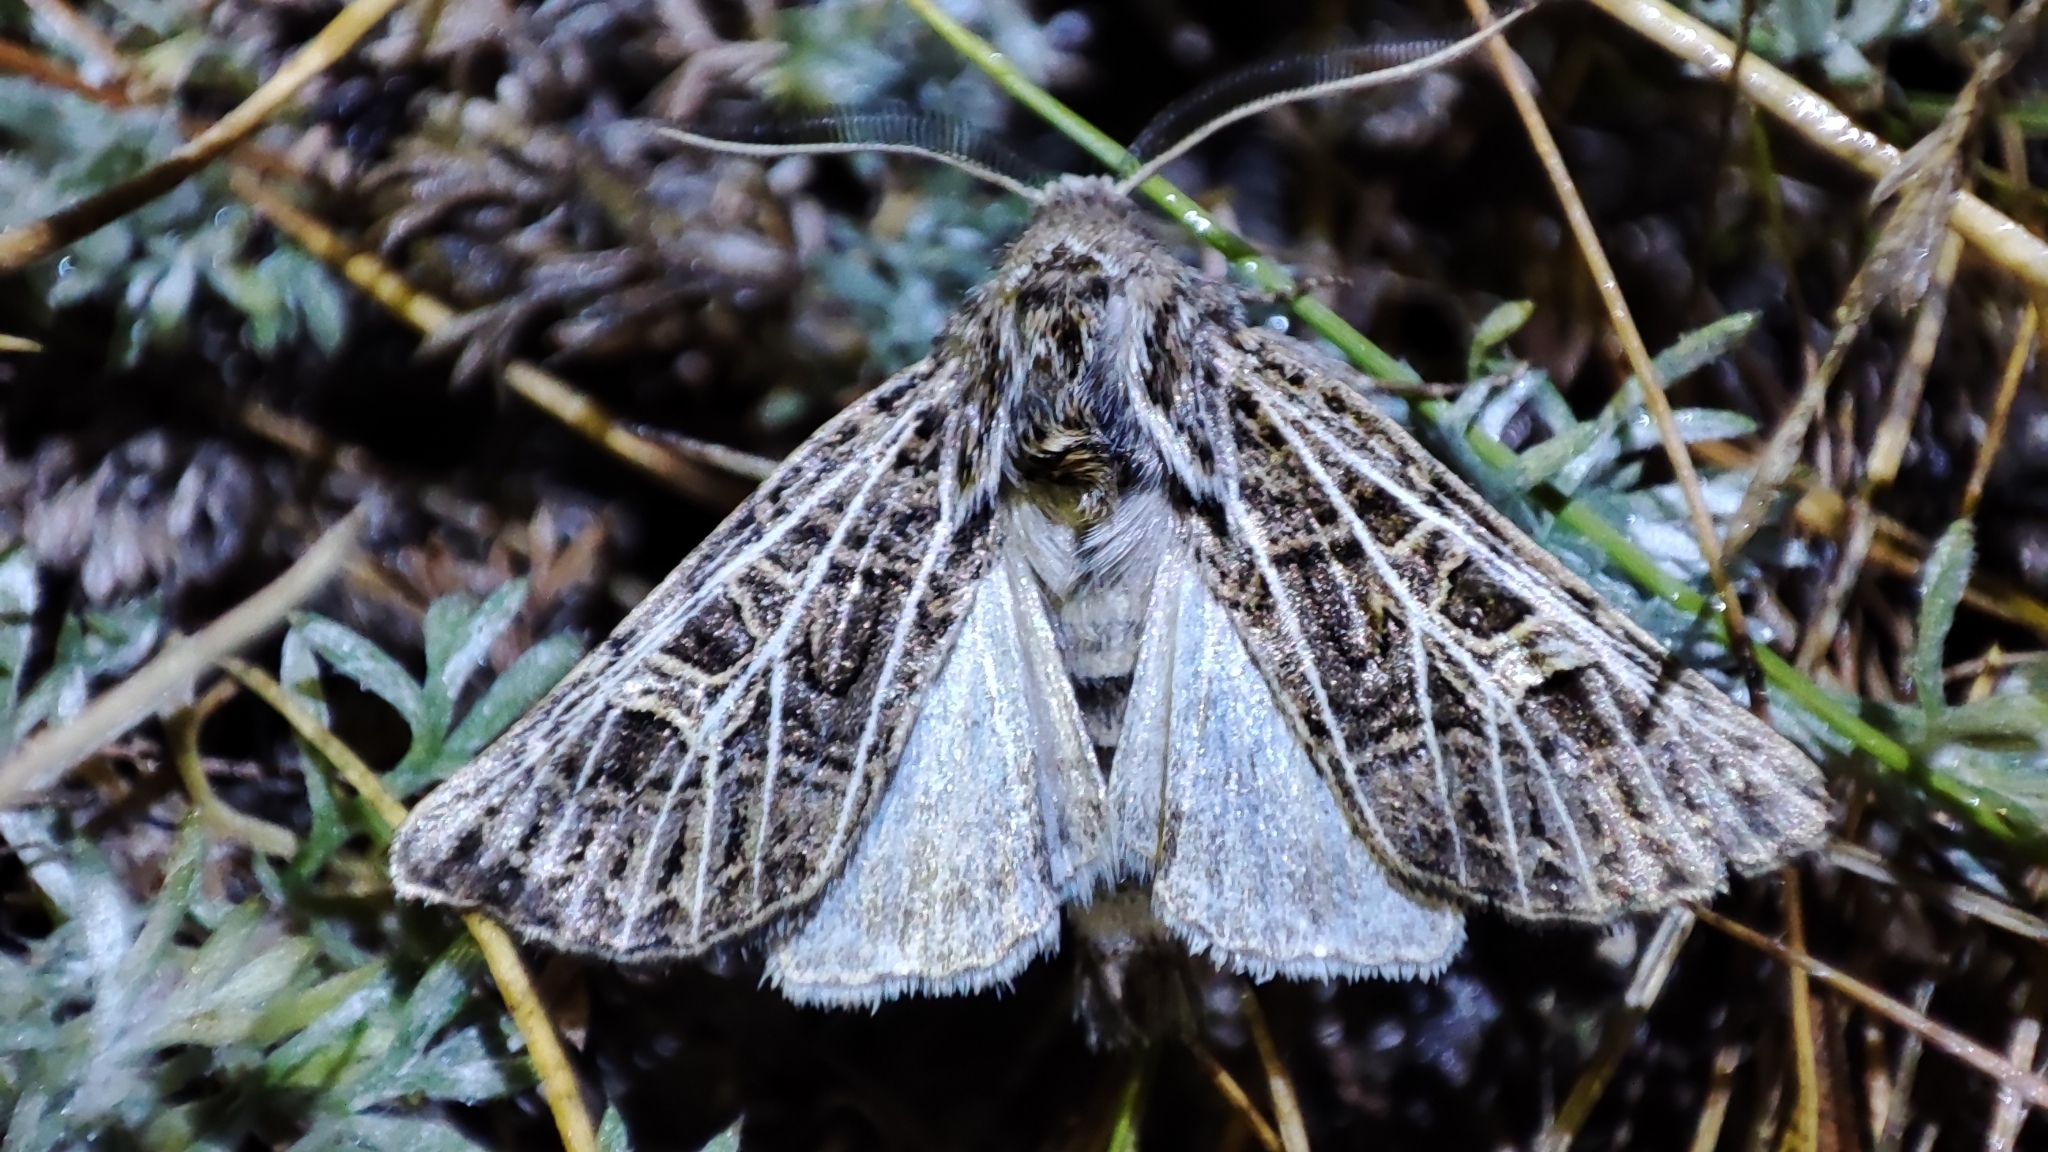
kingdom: Animalia
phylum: Arthropoda
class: Insecta
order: Lepidoptera
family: Noctuidae
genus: Tholera
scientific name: Tholera hilaris
